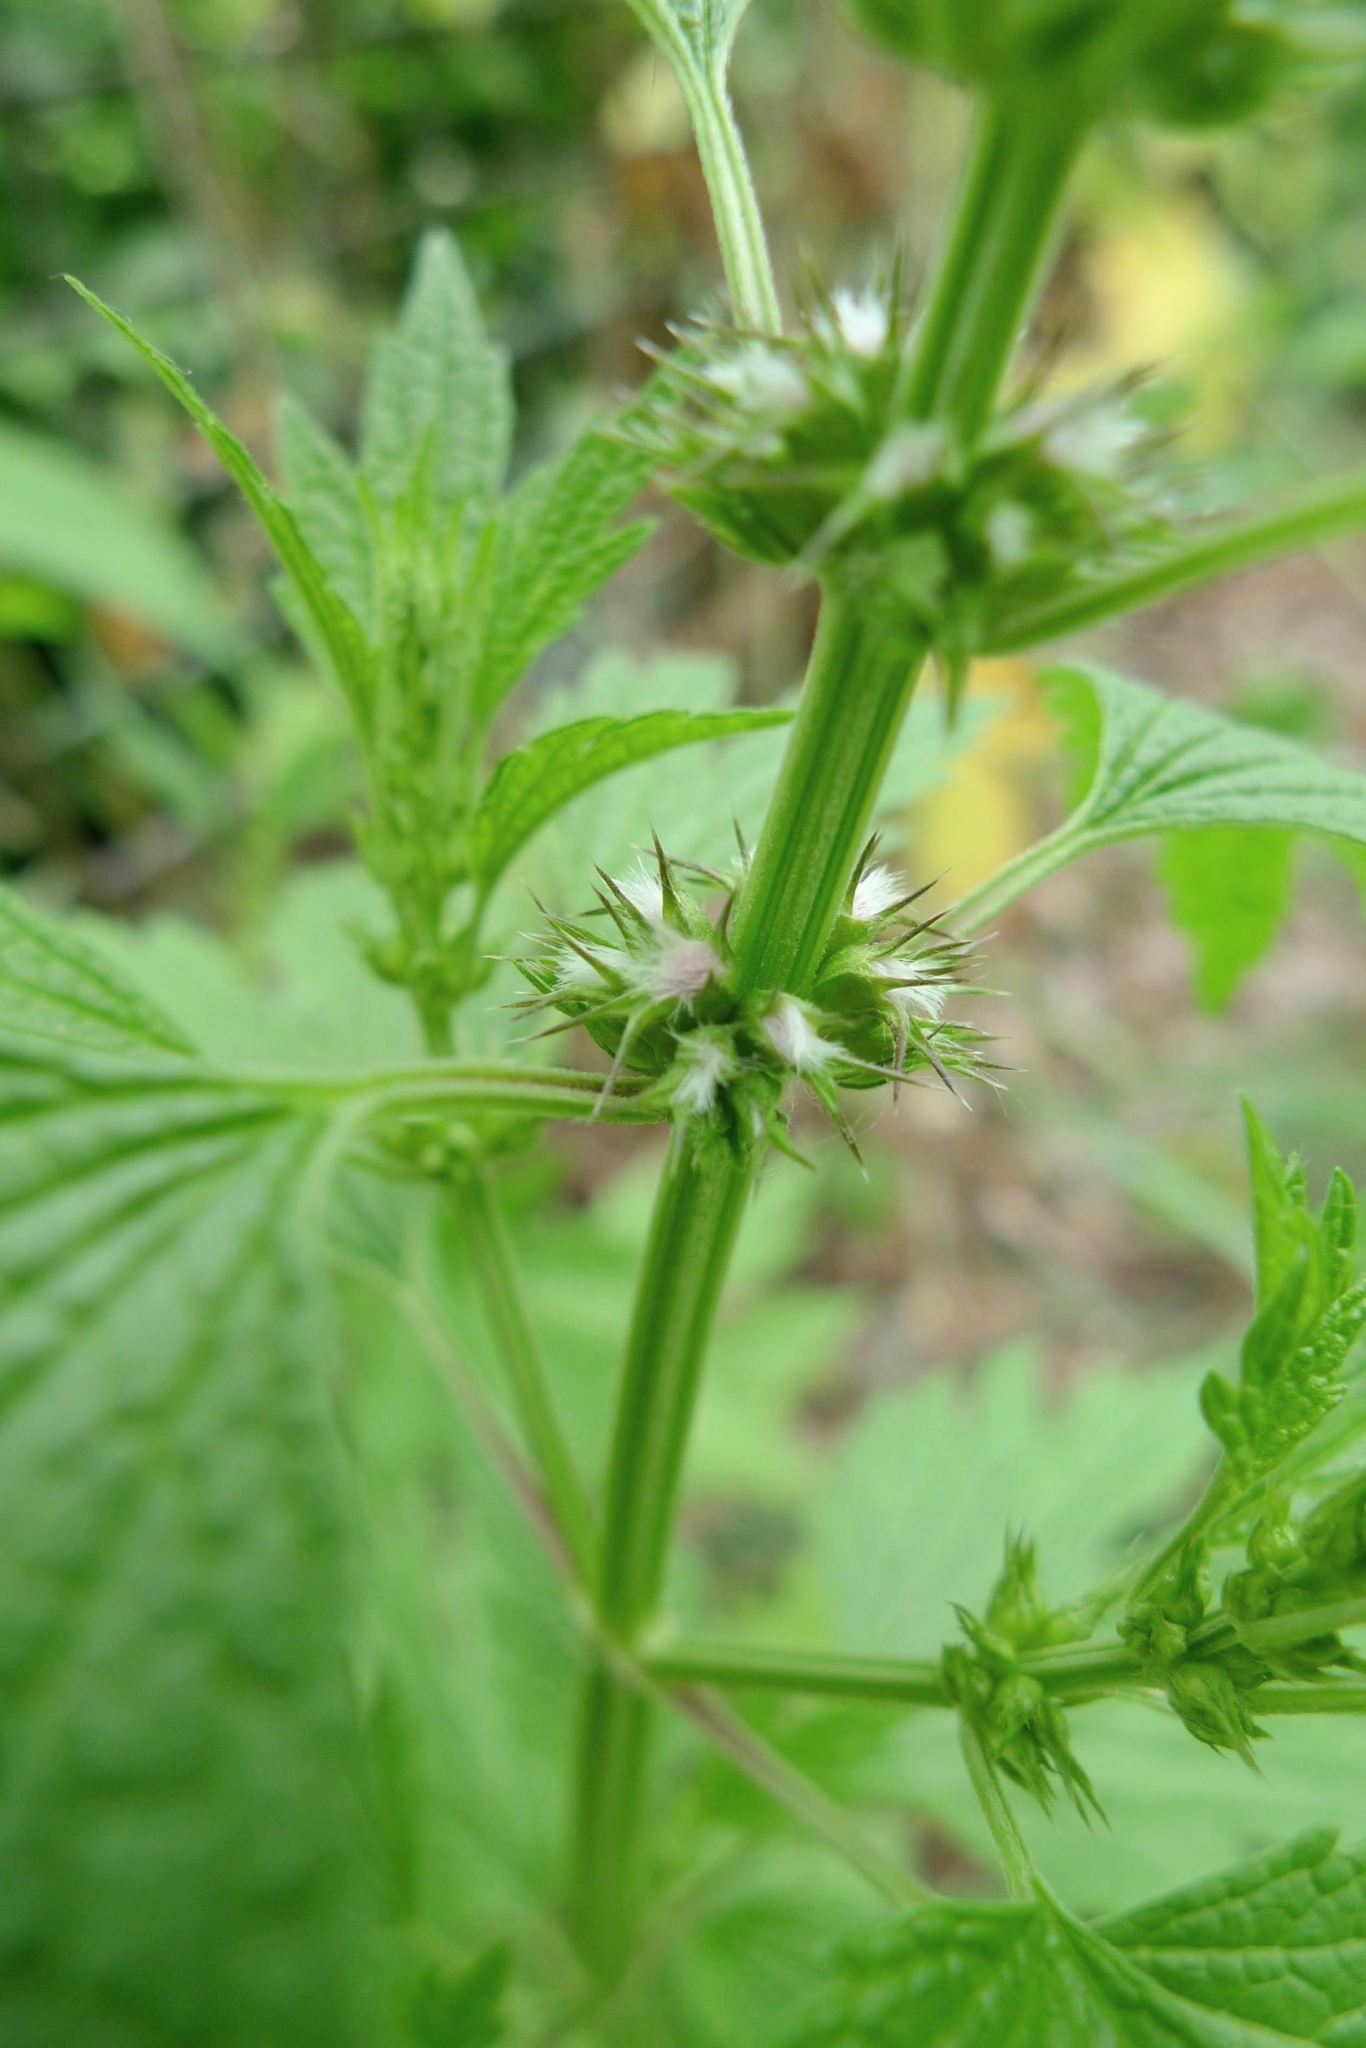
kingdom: Plantae
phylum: Tracheophyta
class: Magnoliopsida
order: Lamiales
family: Lamiaceae
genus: Leonurus
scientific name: Leonurus cardiaca
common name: Motherwort
